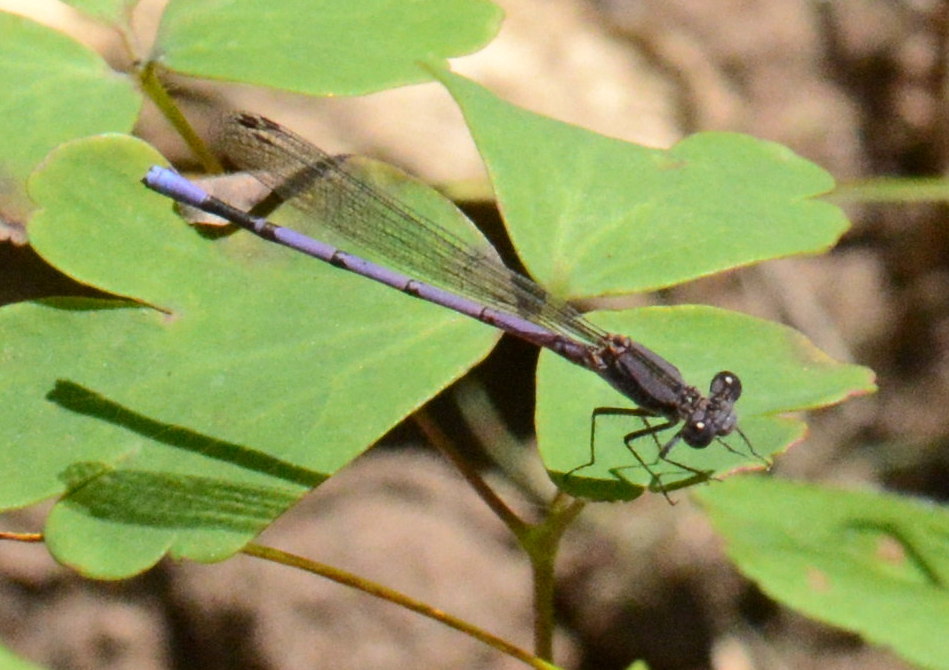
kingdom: Animalia
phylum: Arthropoda
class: Insecta
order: Odonata
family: Coenagrionidae
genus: Argia
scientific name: Argia fumipennis
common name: Variable dancer
